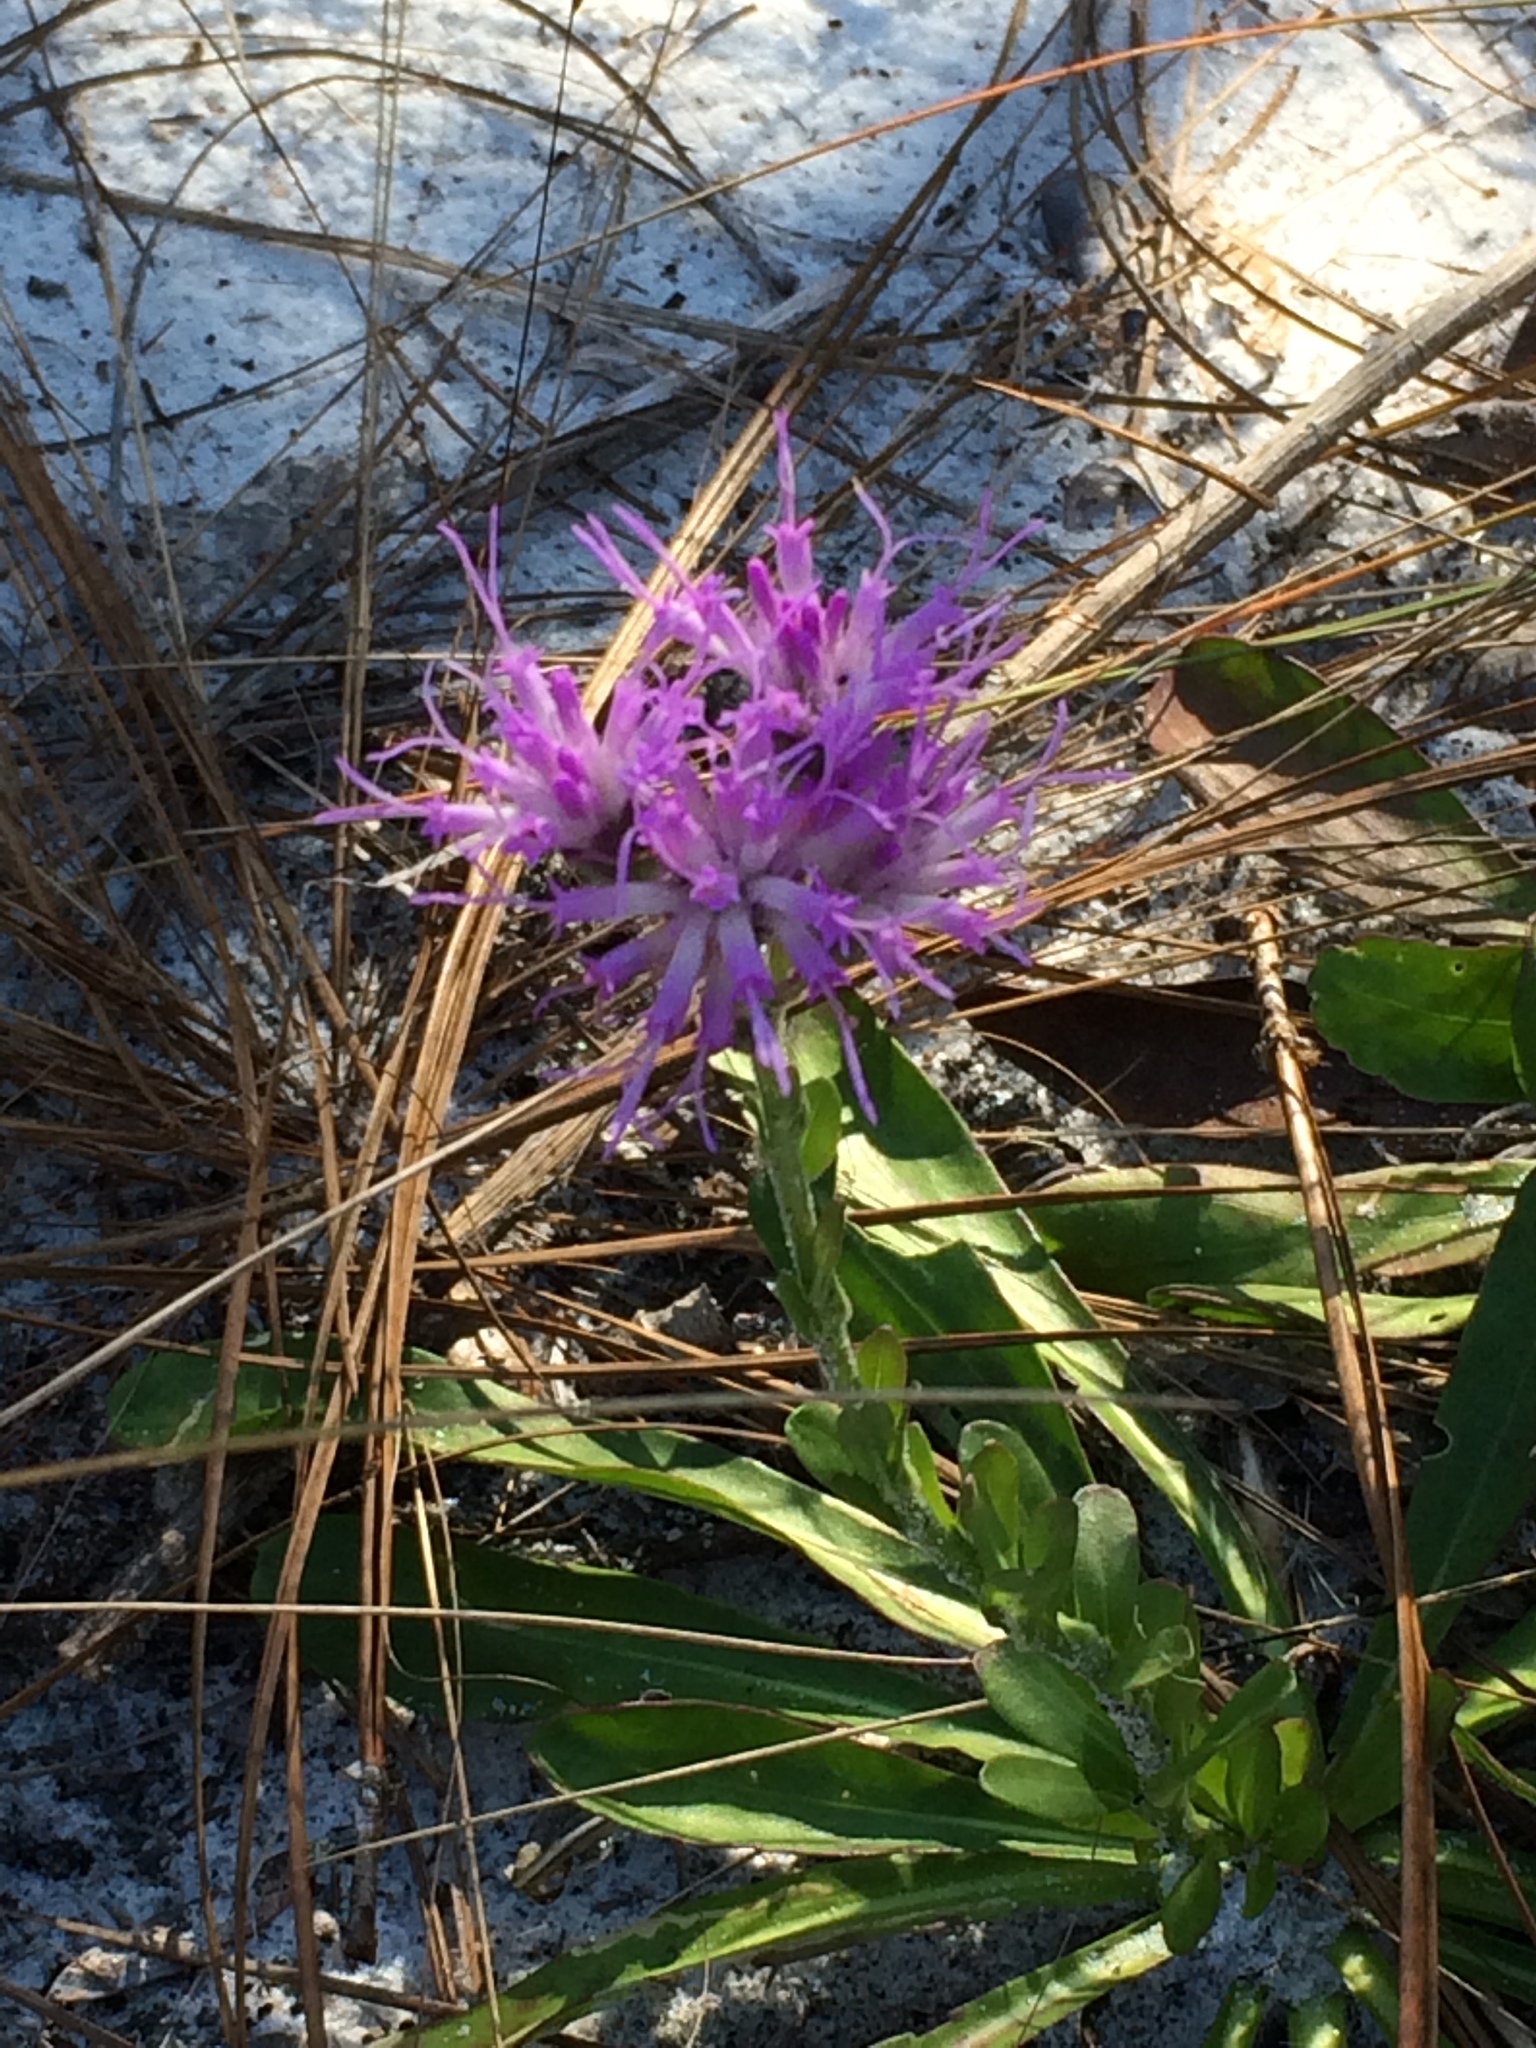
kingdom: Plantae
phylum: Tracheophyta
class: Magnoliopsida
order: Asterales
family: Asteraceae
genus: Carphephorus
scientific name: Carphephorus corymbosus
